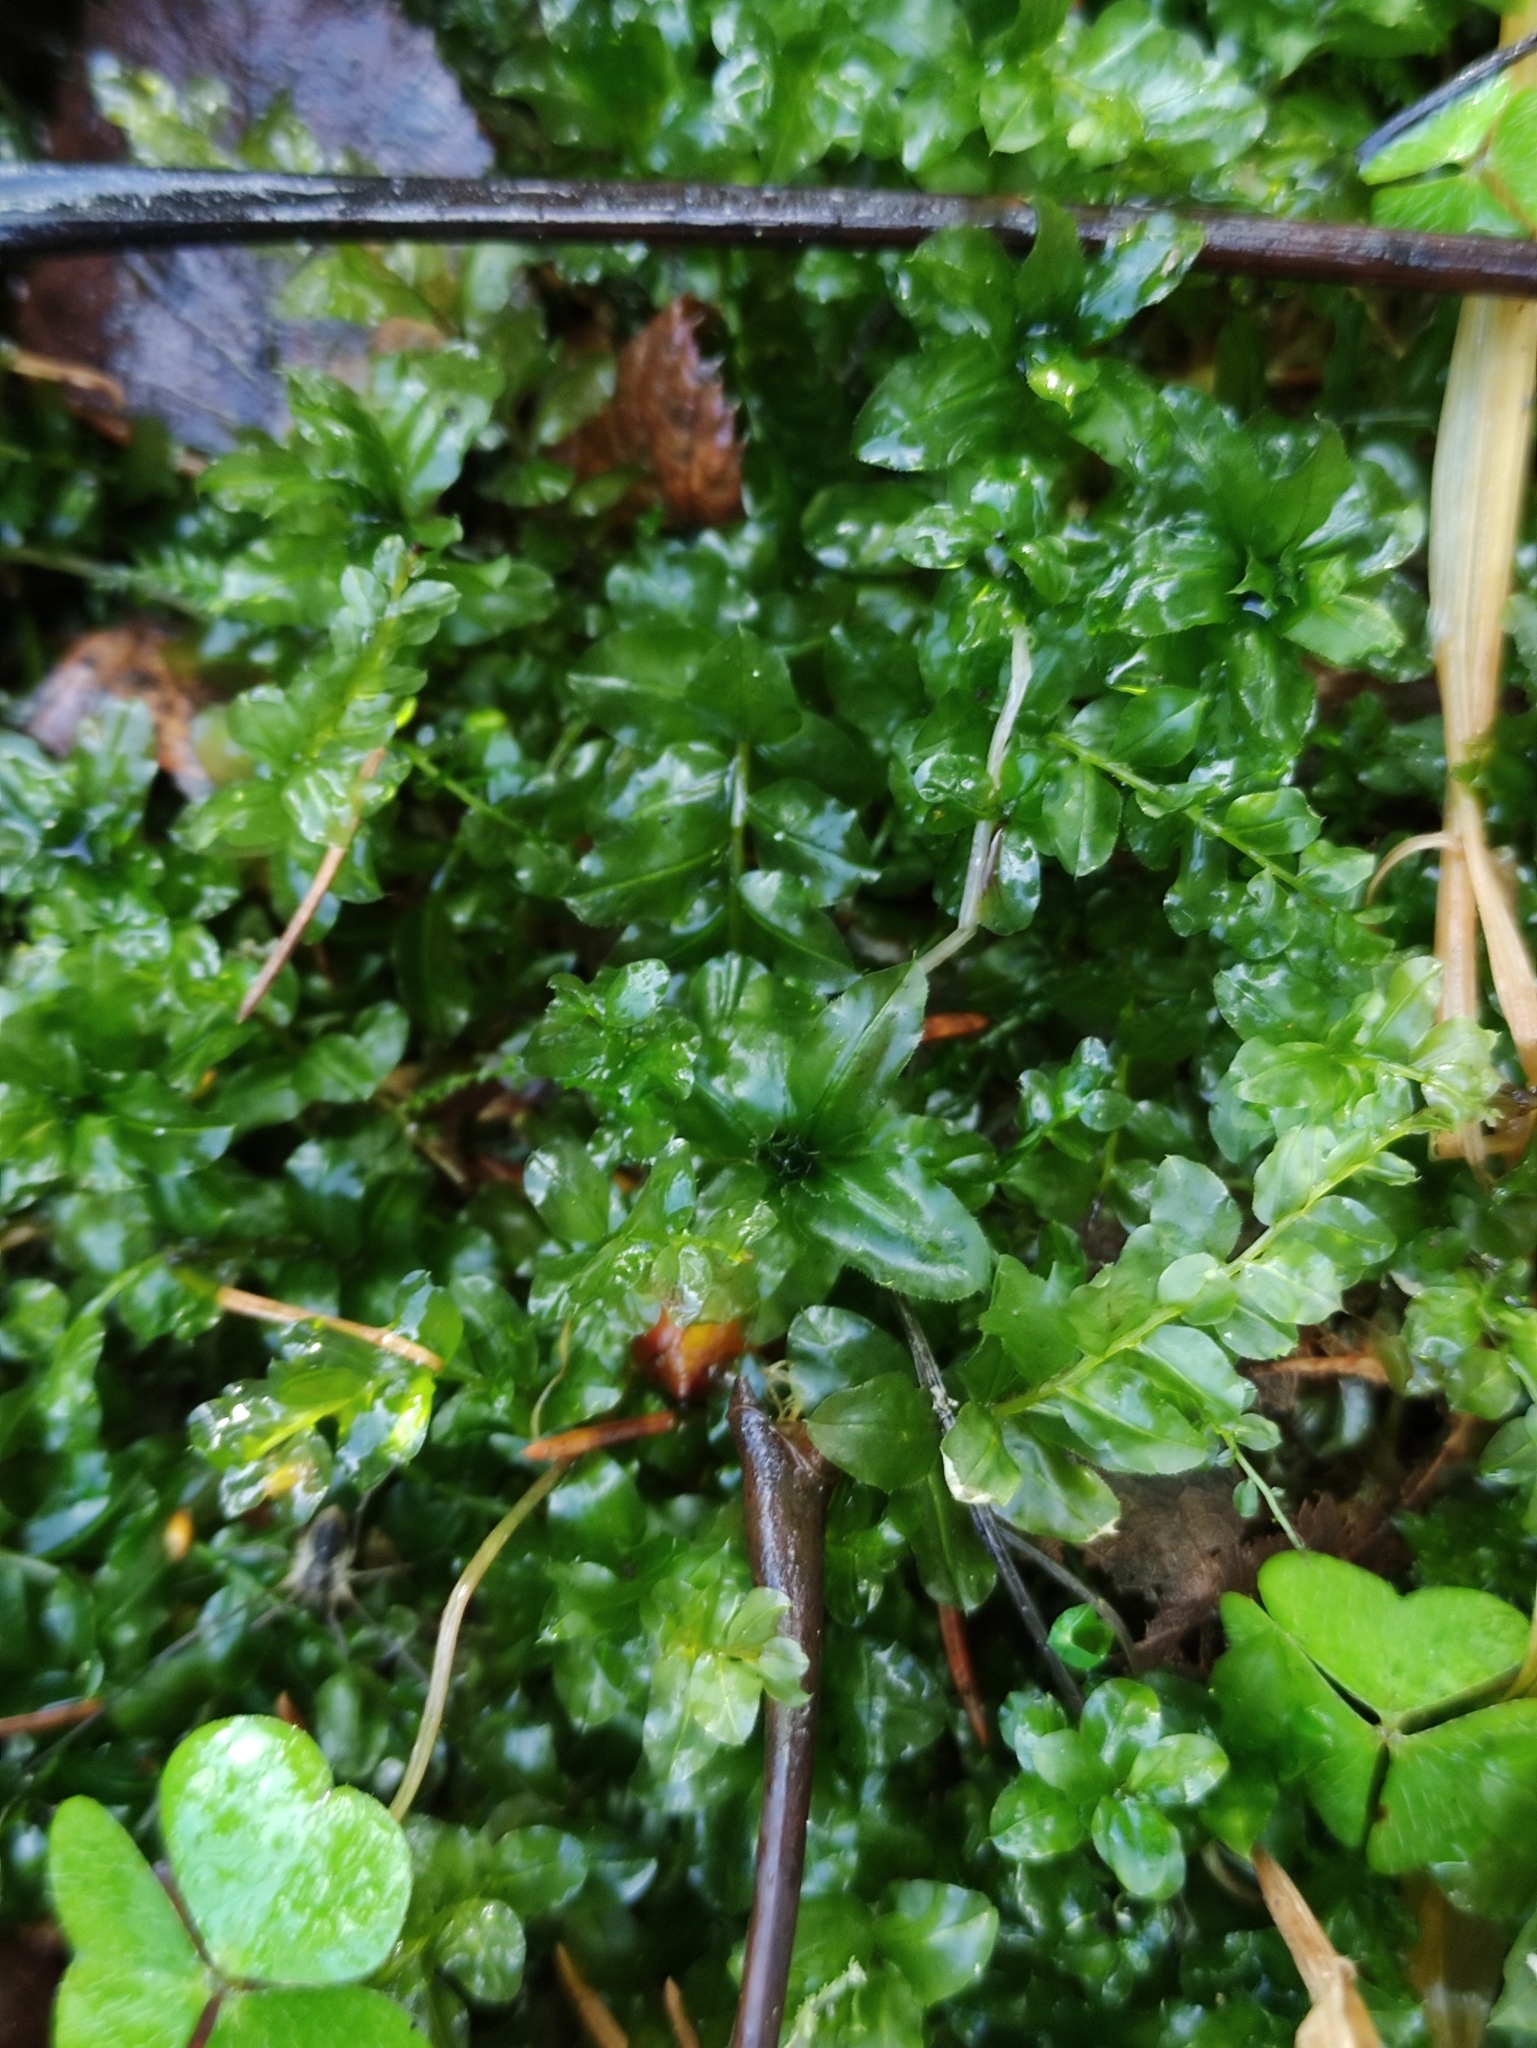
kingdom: Plantae
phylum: Bryophyta
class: Bryopsida
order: Bryales
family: Mniaceae
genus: Plagiomnium
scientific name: Plagiomnium affine
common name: Many-fruited thyme-moss
